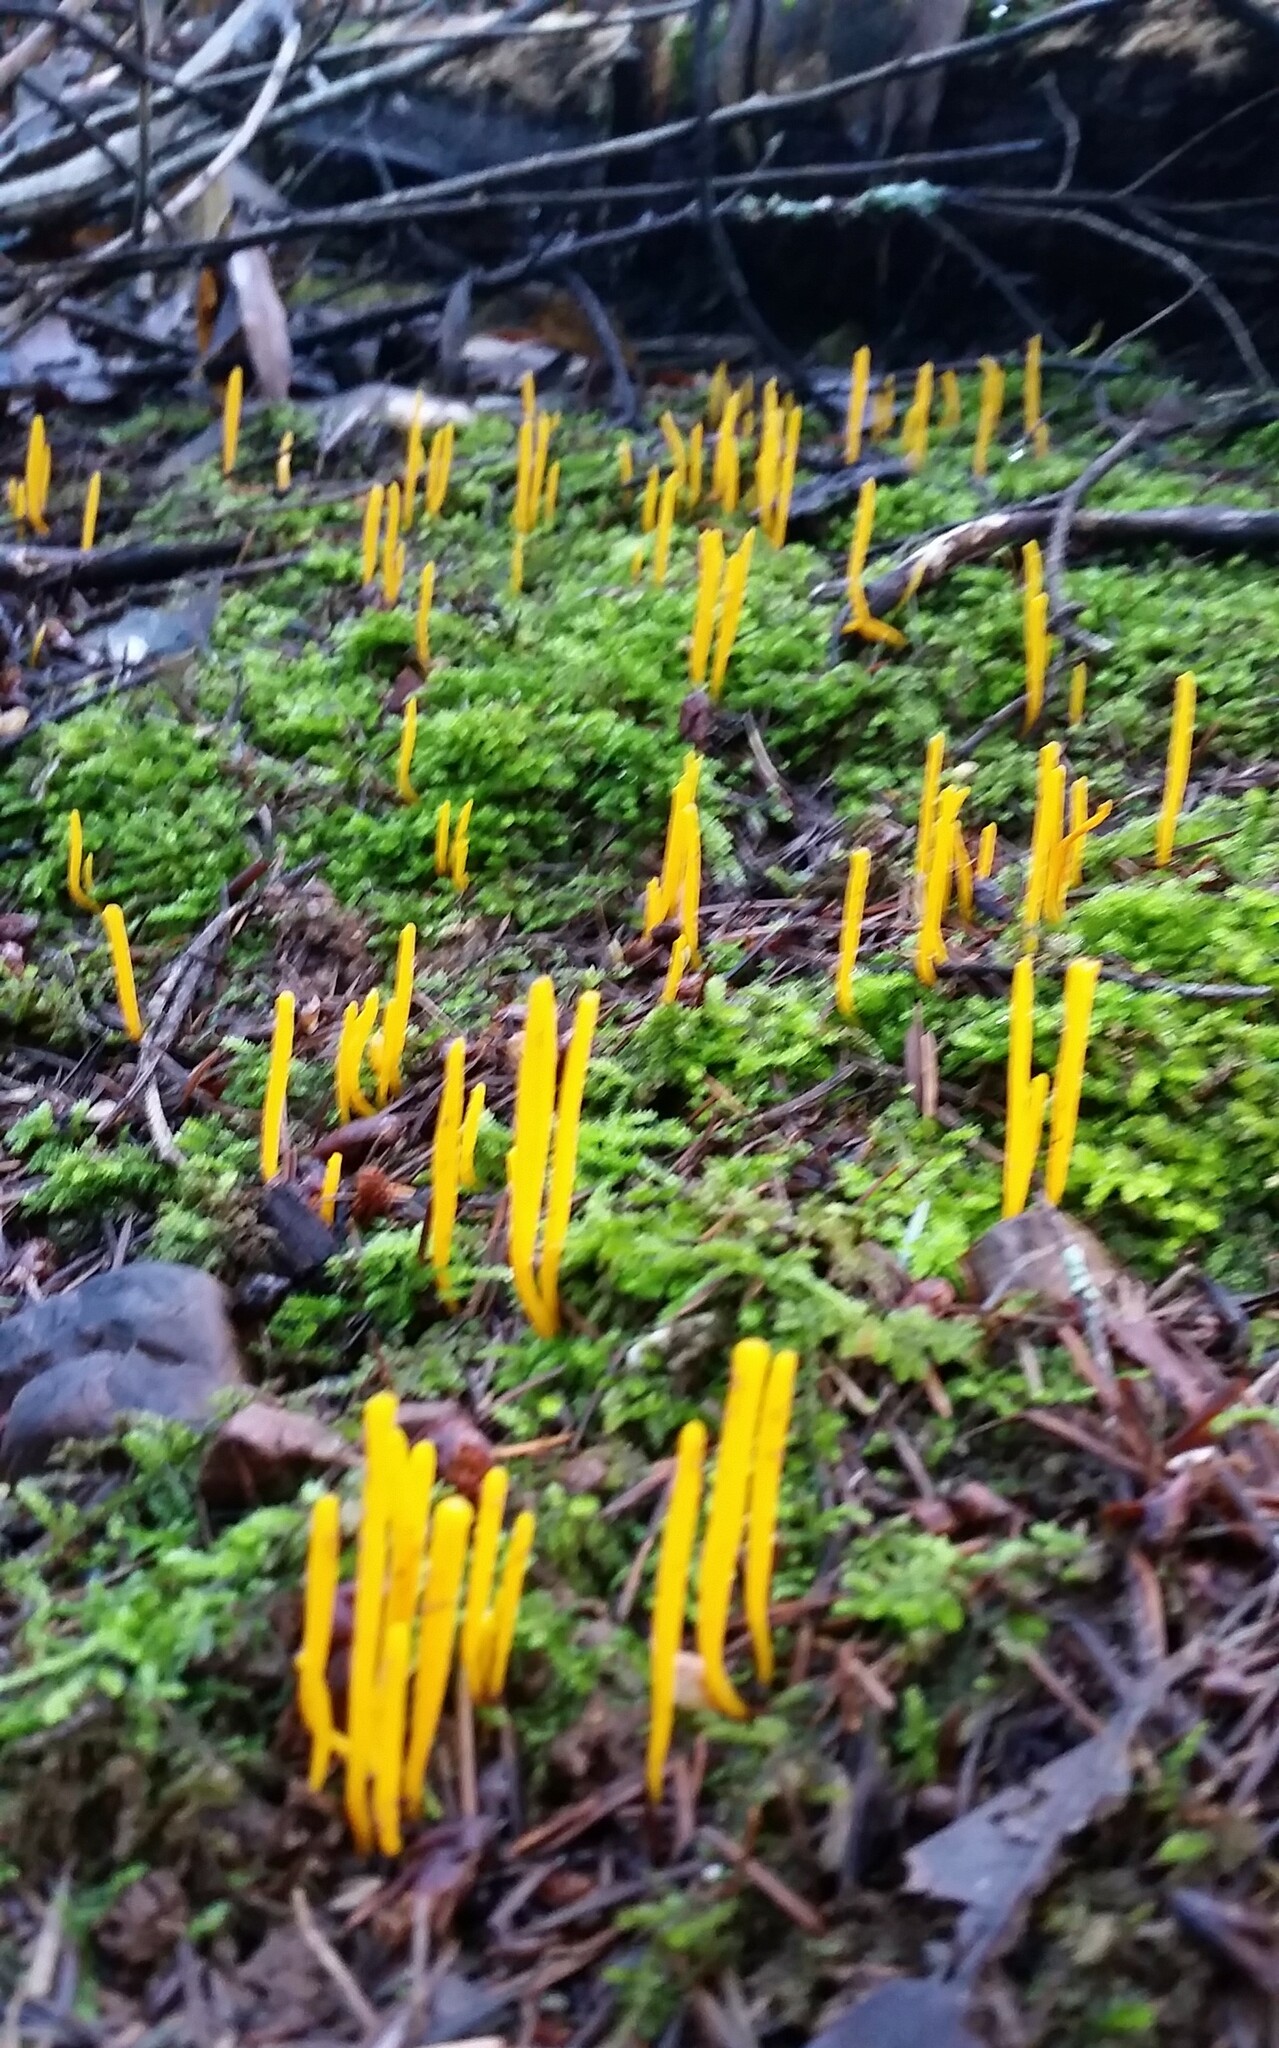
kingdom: Fungi
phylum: Basidiomycota
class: Agaricomycetes
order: Agaricales
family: Clavariaceae
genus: Clavulinopsis
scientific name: Clavulinopsis laeticolor
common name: Handsome club
